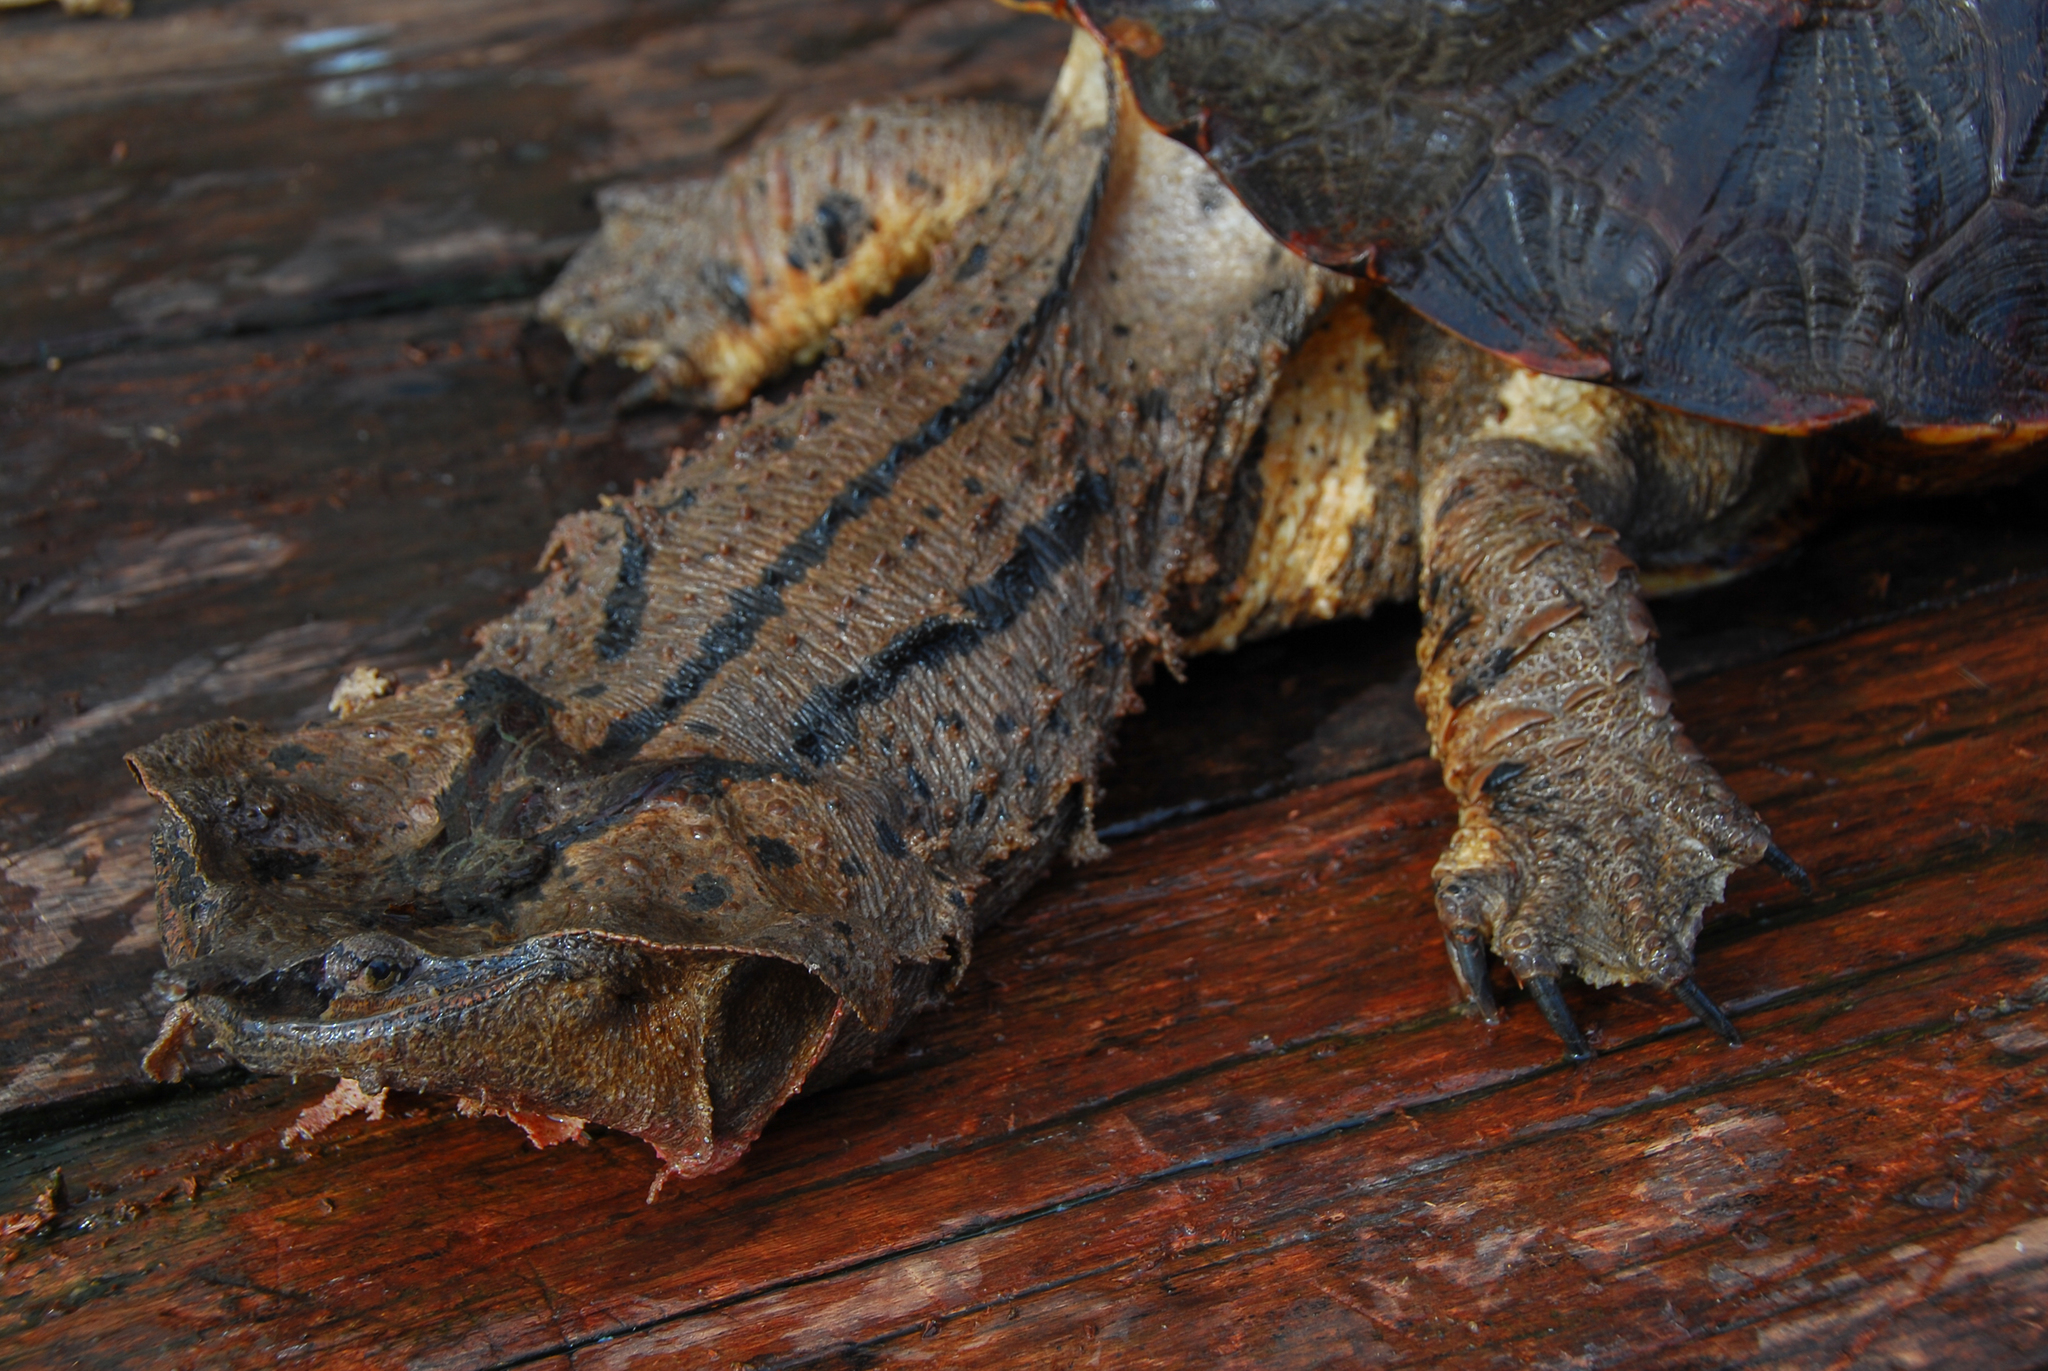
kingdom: Animalia
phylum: Chordata
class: Testudines
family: Chelidae
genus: Chelus
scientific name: Chelus fimbriata
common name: Mata mata
